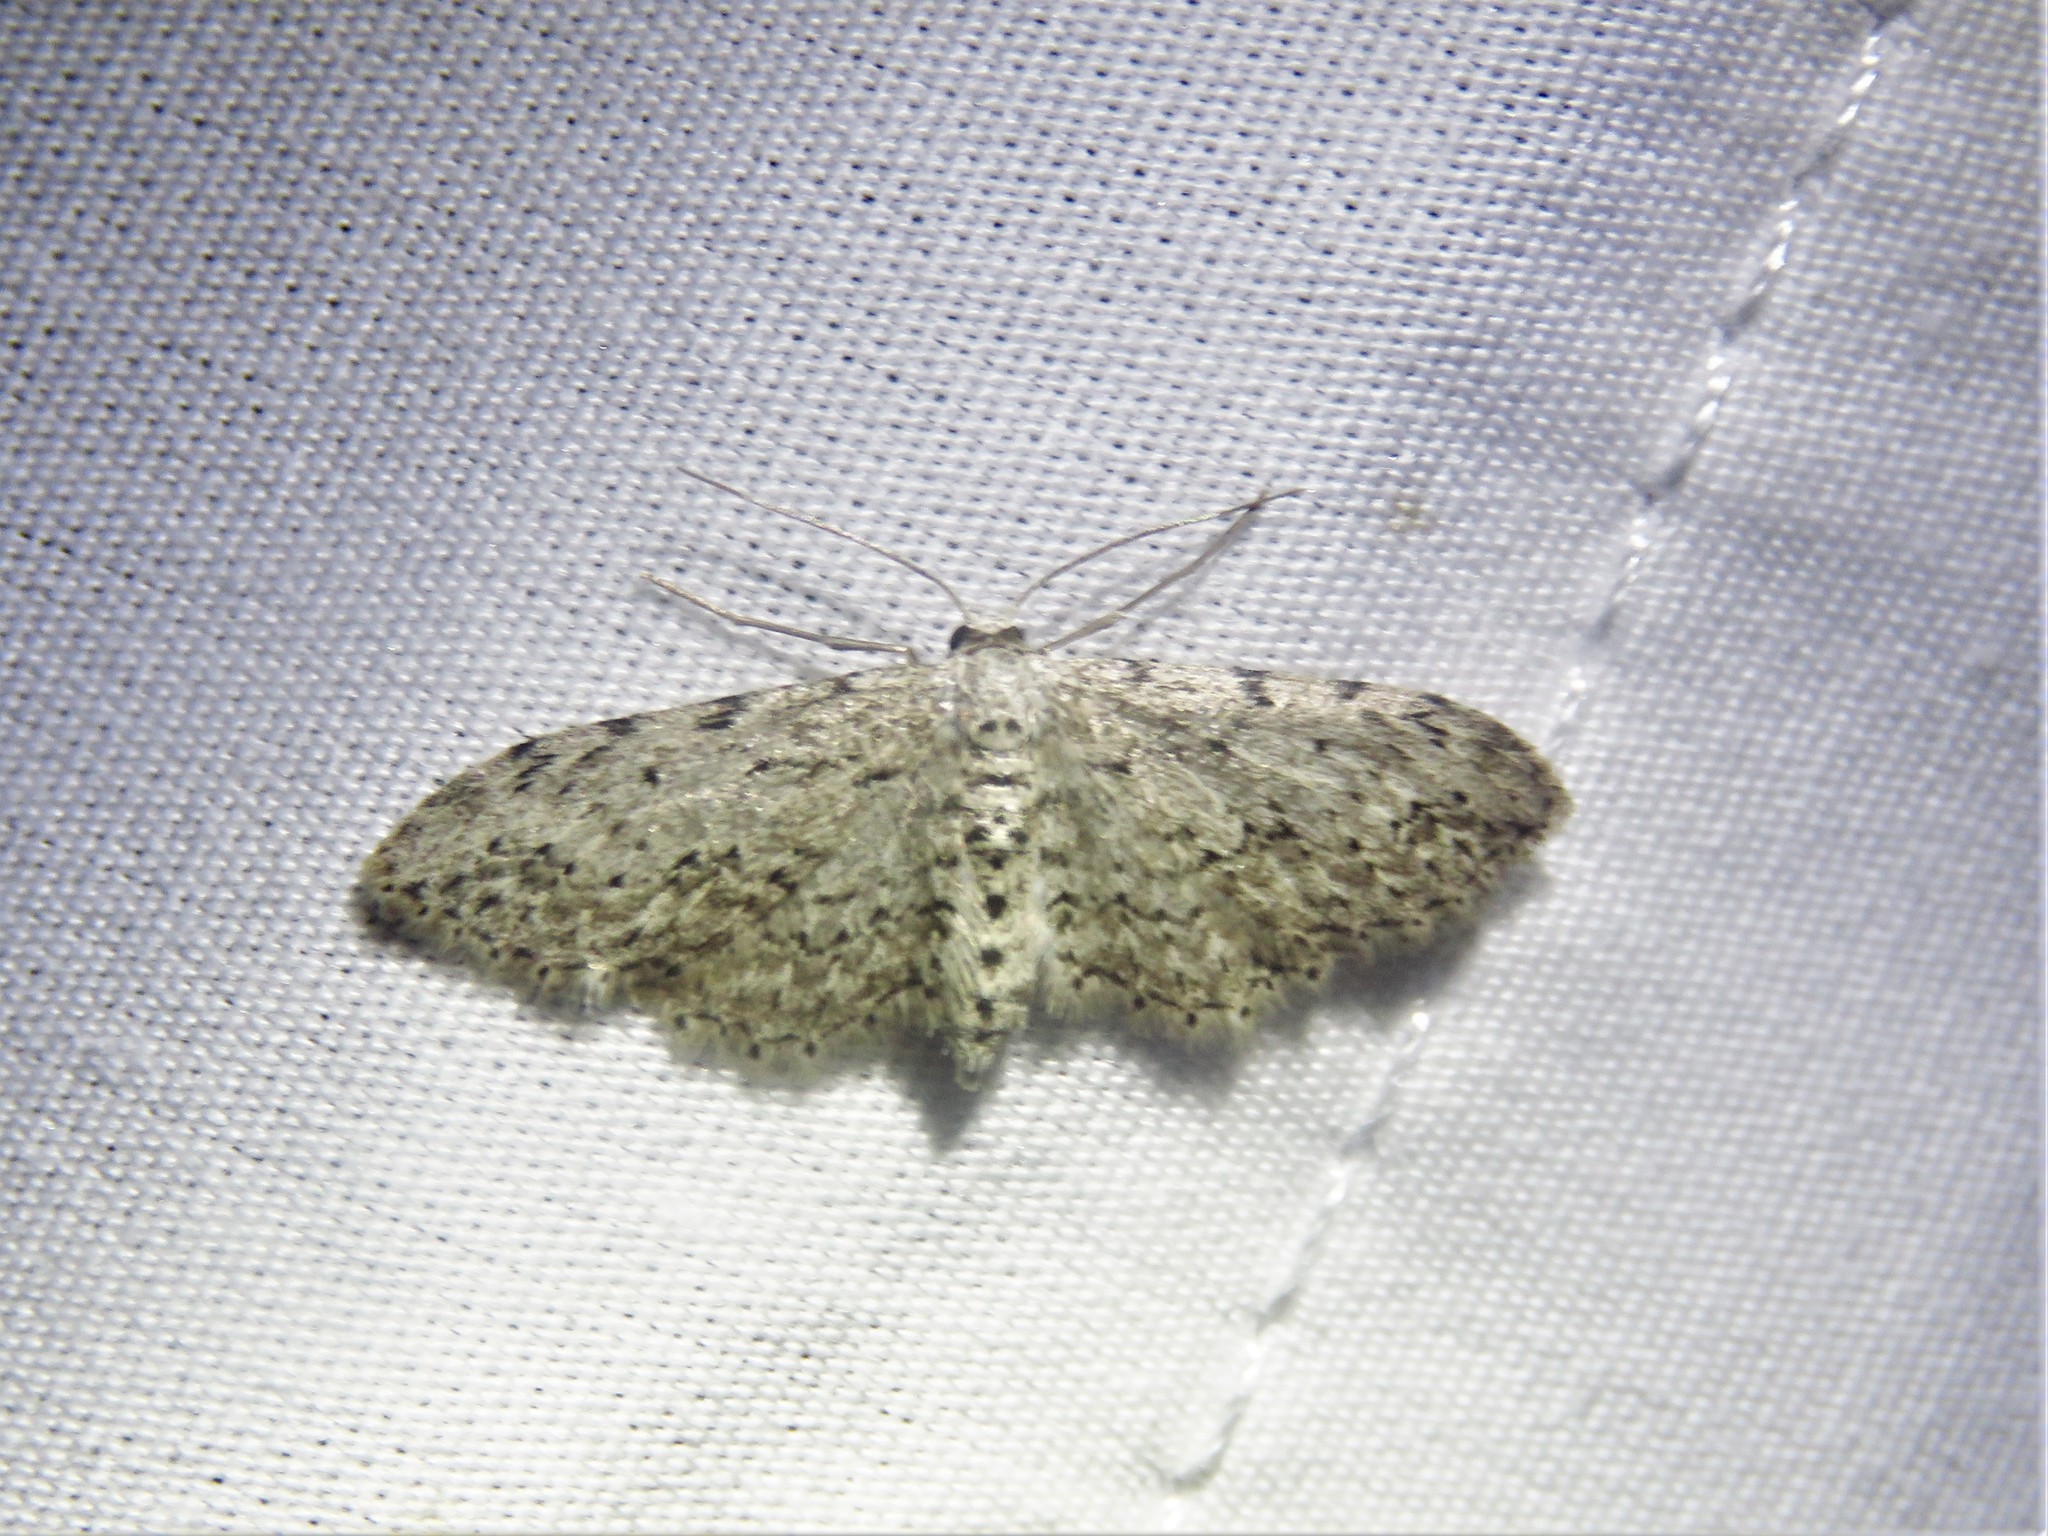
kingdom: Animalia
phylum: Arthropoda
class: Insecta
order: Lepidoptera
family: Geometridae
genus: Pimaphera
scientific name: Pimaphera sparsaria
